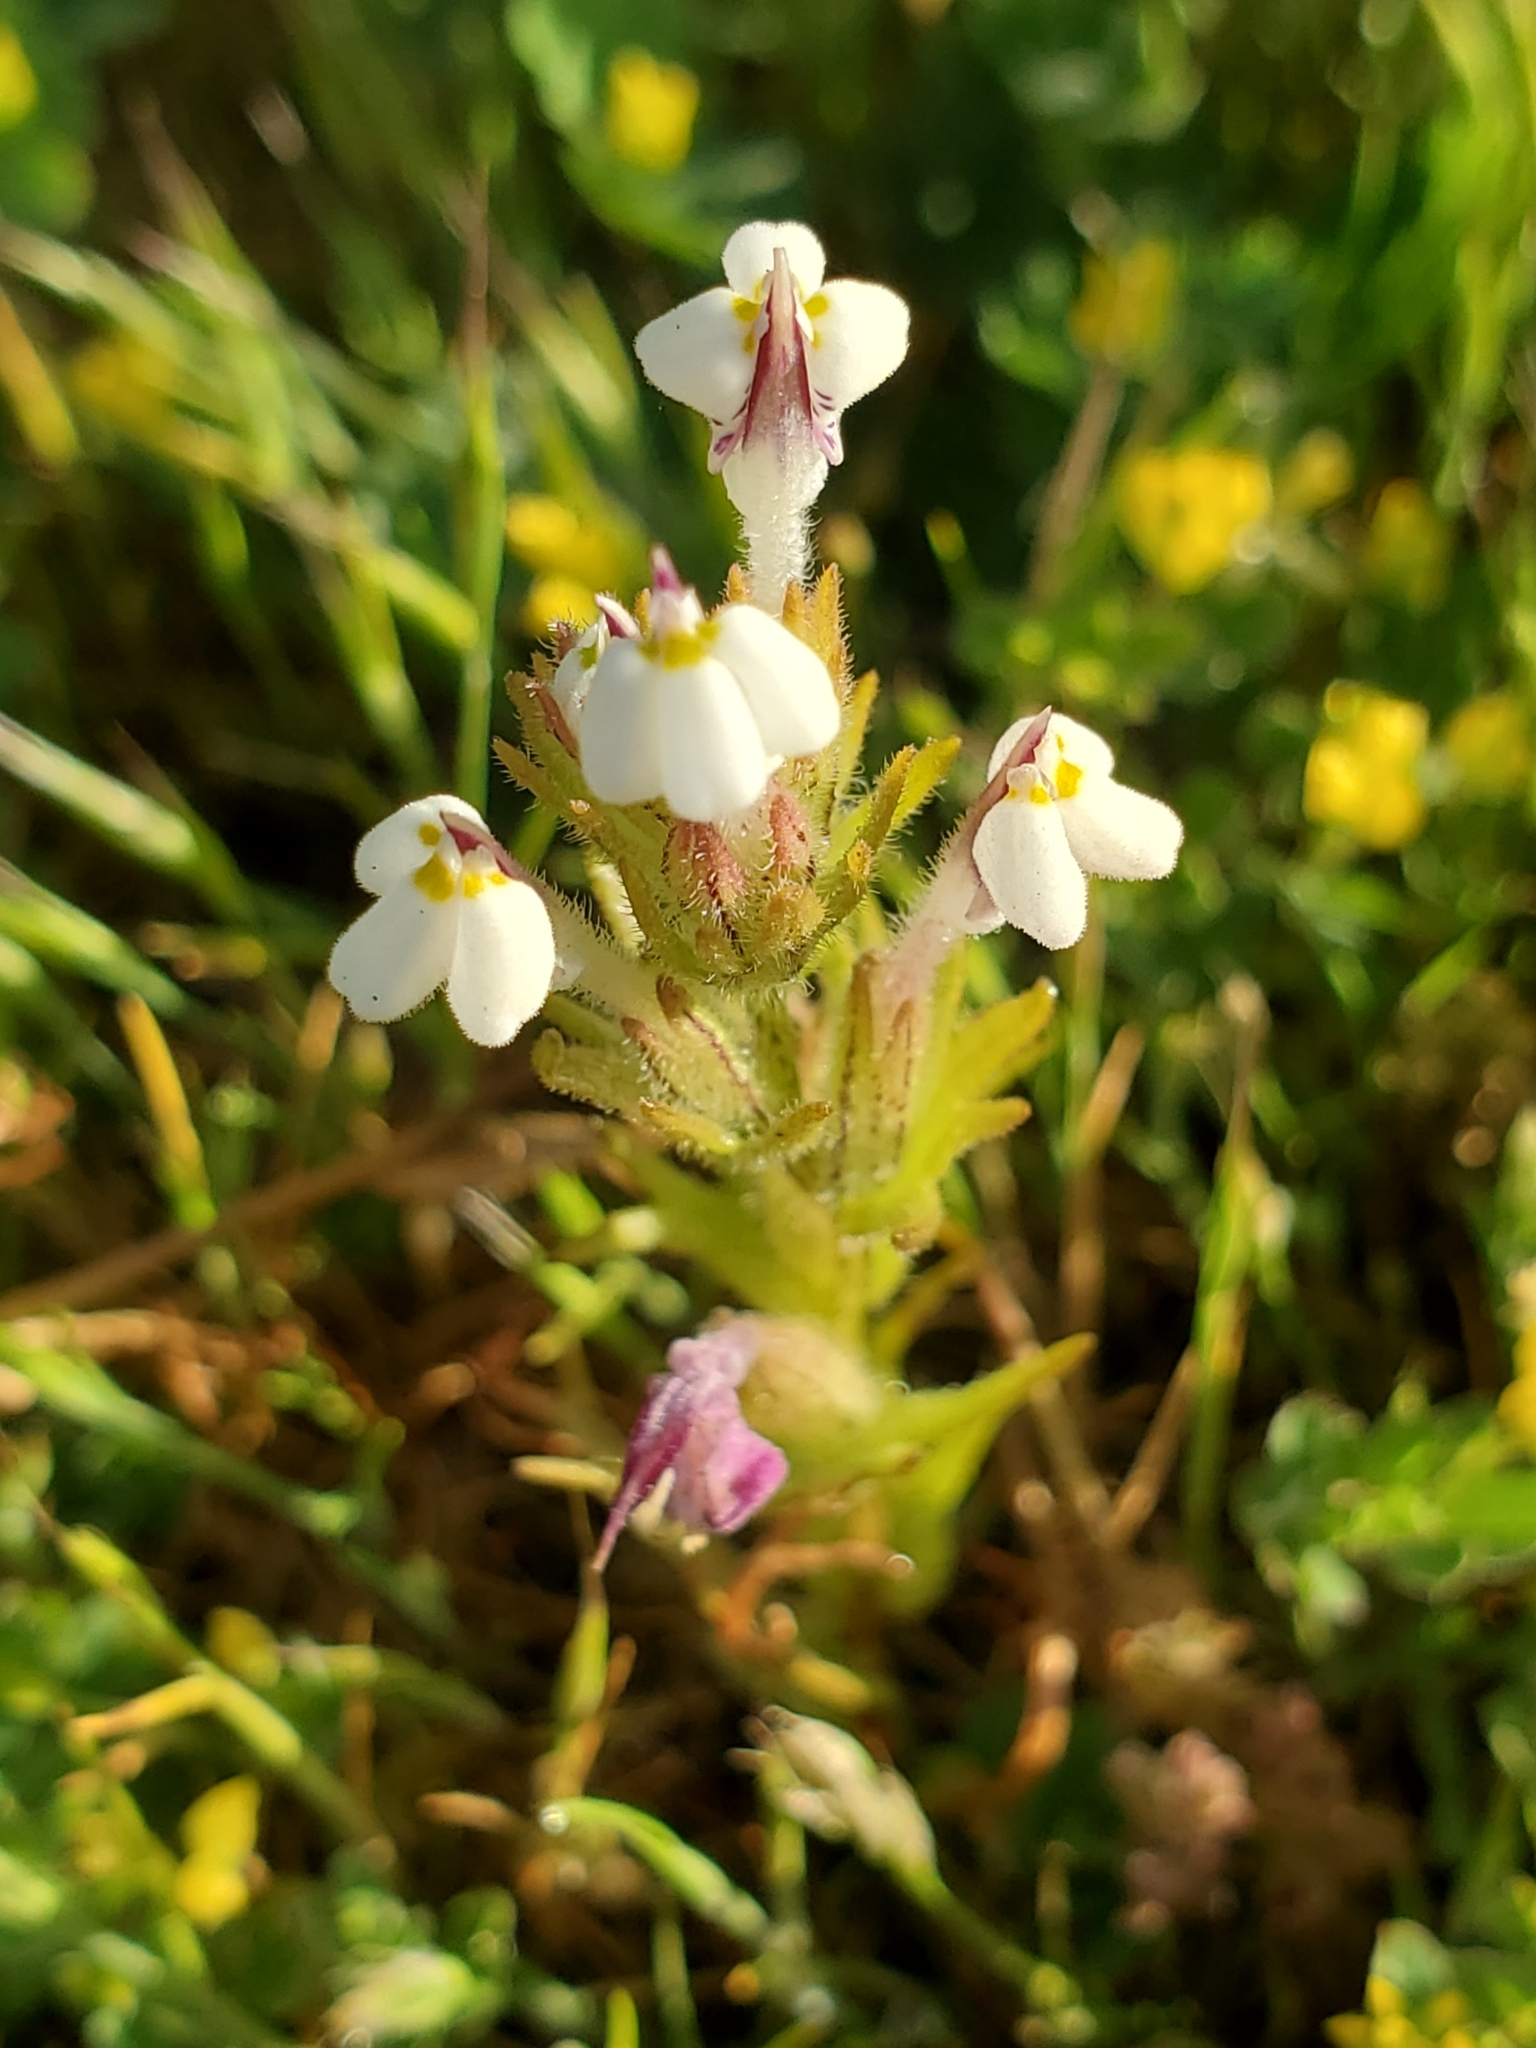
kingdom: Plantae
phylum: Tracheophyta
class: Magnoliopsida
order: Lamiales
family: Orobanchaceae
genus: Triphysaria
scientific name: Triphysaria versicolor
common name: Bearded false owl-clover
